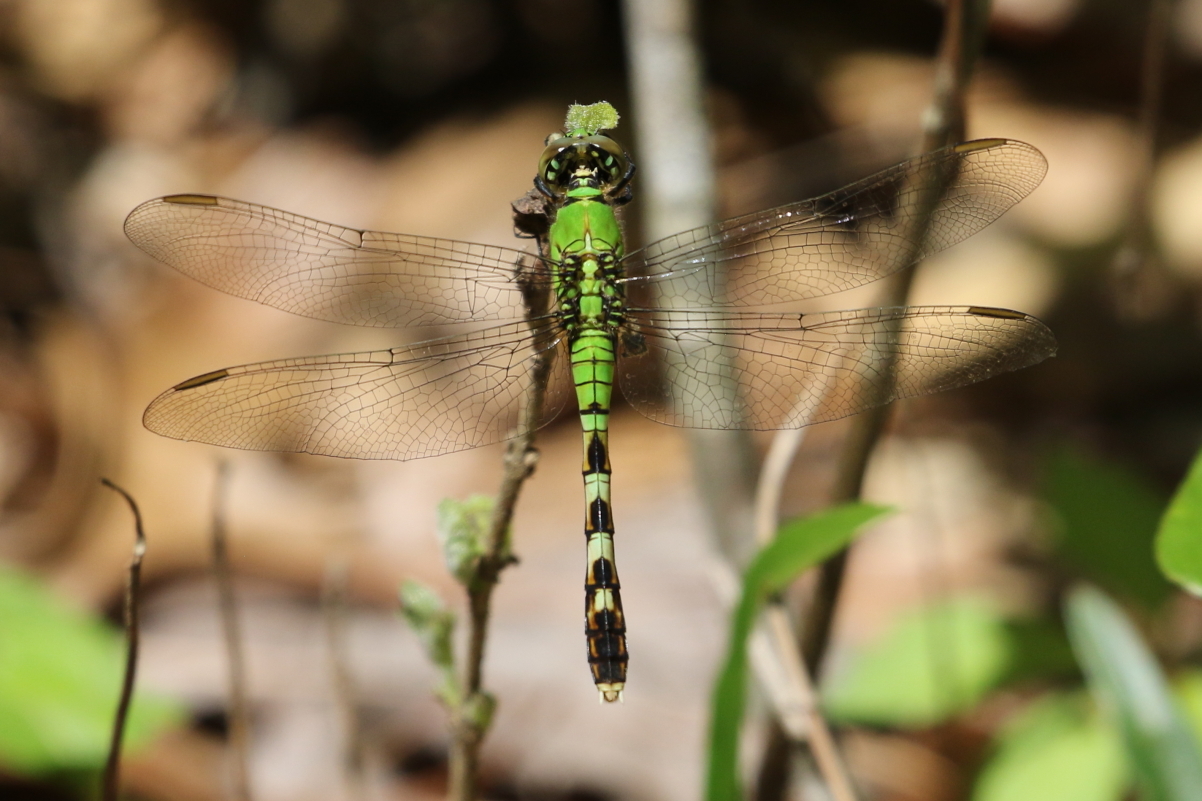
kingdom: Animalia
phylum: Arthropoda
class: Insecta
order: Odonata
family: Libellulidae
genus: Erythemis
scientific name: Erythemis simplicicollis
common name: Eastern pondhawk
